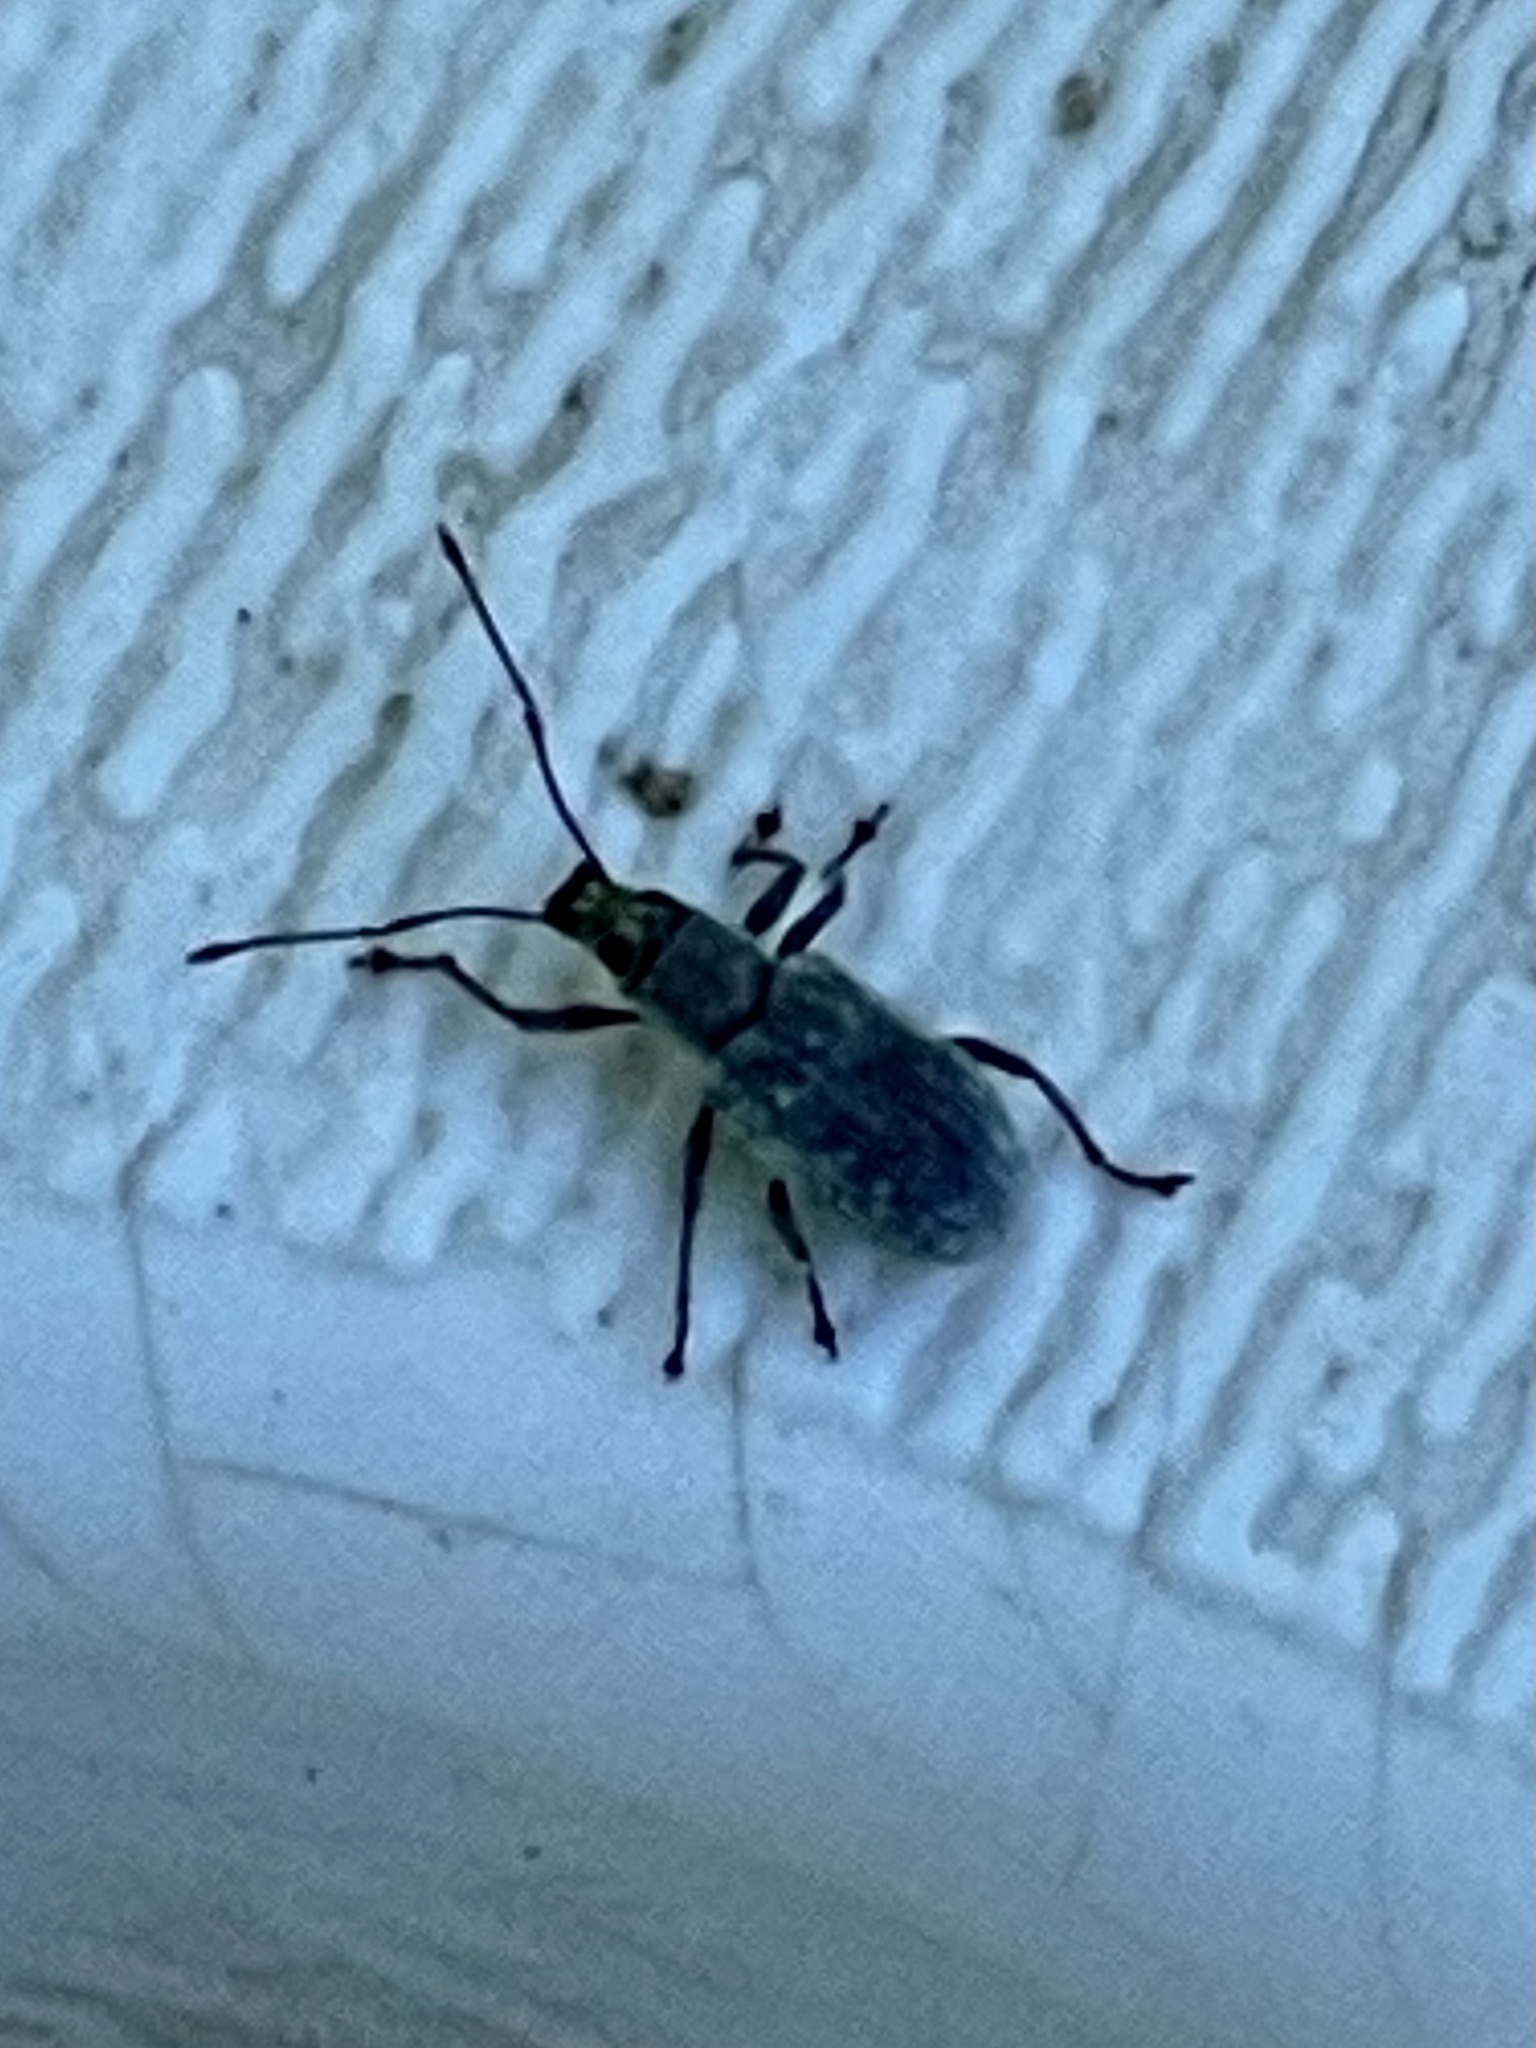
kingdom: Animalia
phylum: Arthropoda
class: Insecta
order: Coleoptera
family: Curculionidae
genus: Cyrtepistomus
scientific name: Cyrtepistomus castaneus
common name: Weevil
